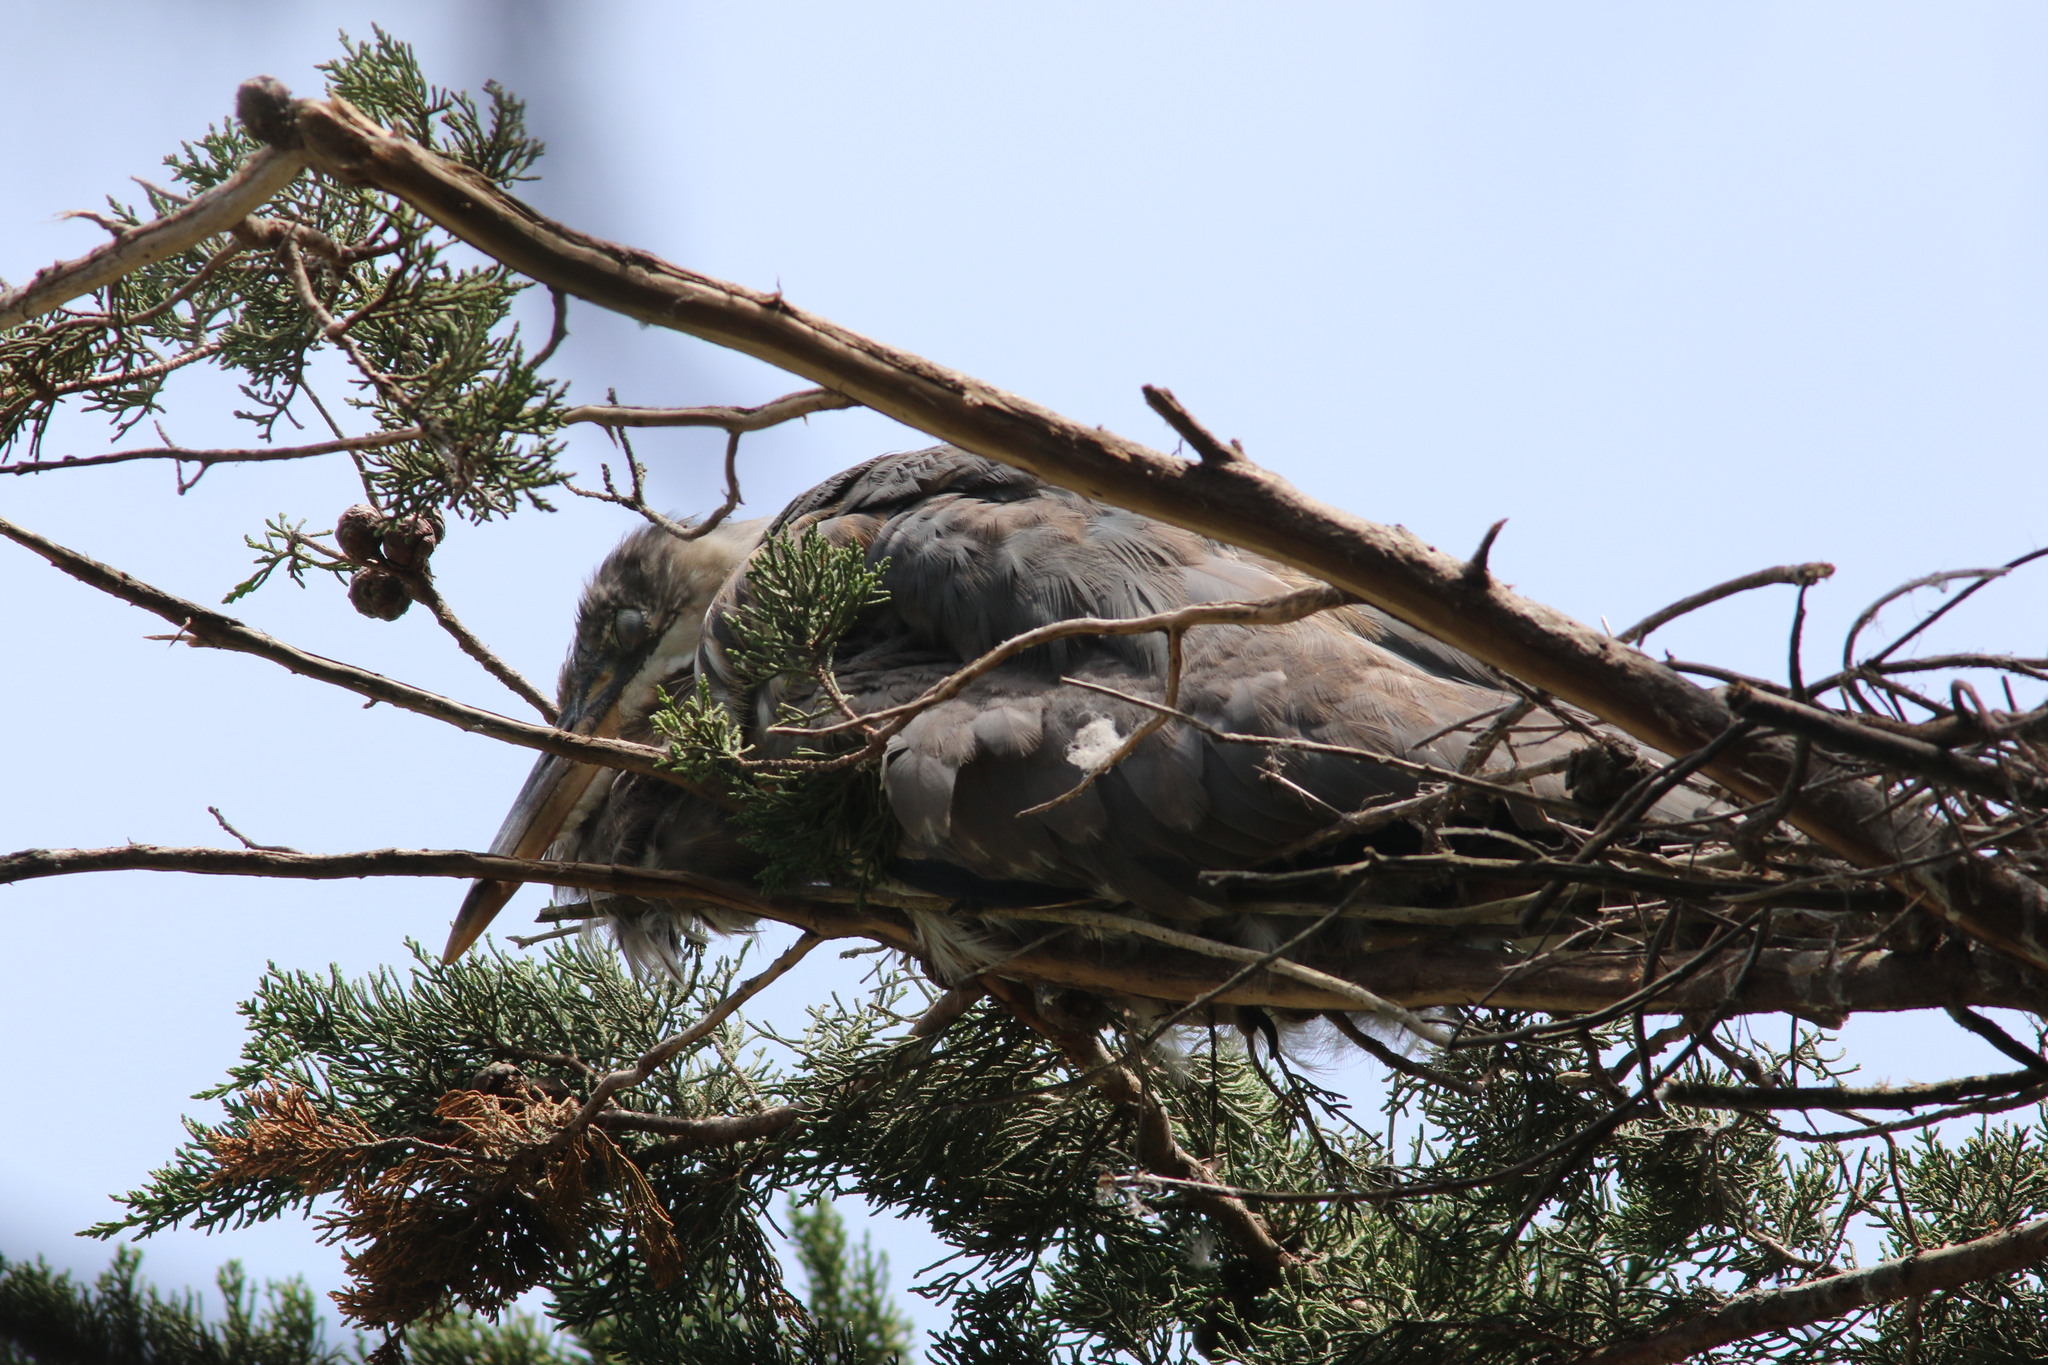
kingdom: Animalia
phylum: Chordata
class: Aves
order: Pelecaniformes
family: Ardeidae
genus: Ardea
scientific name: Ardea herodias
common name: Great blue heron
